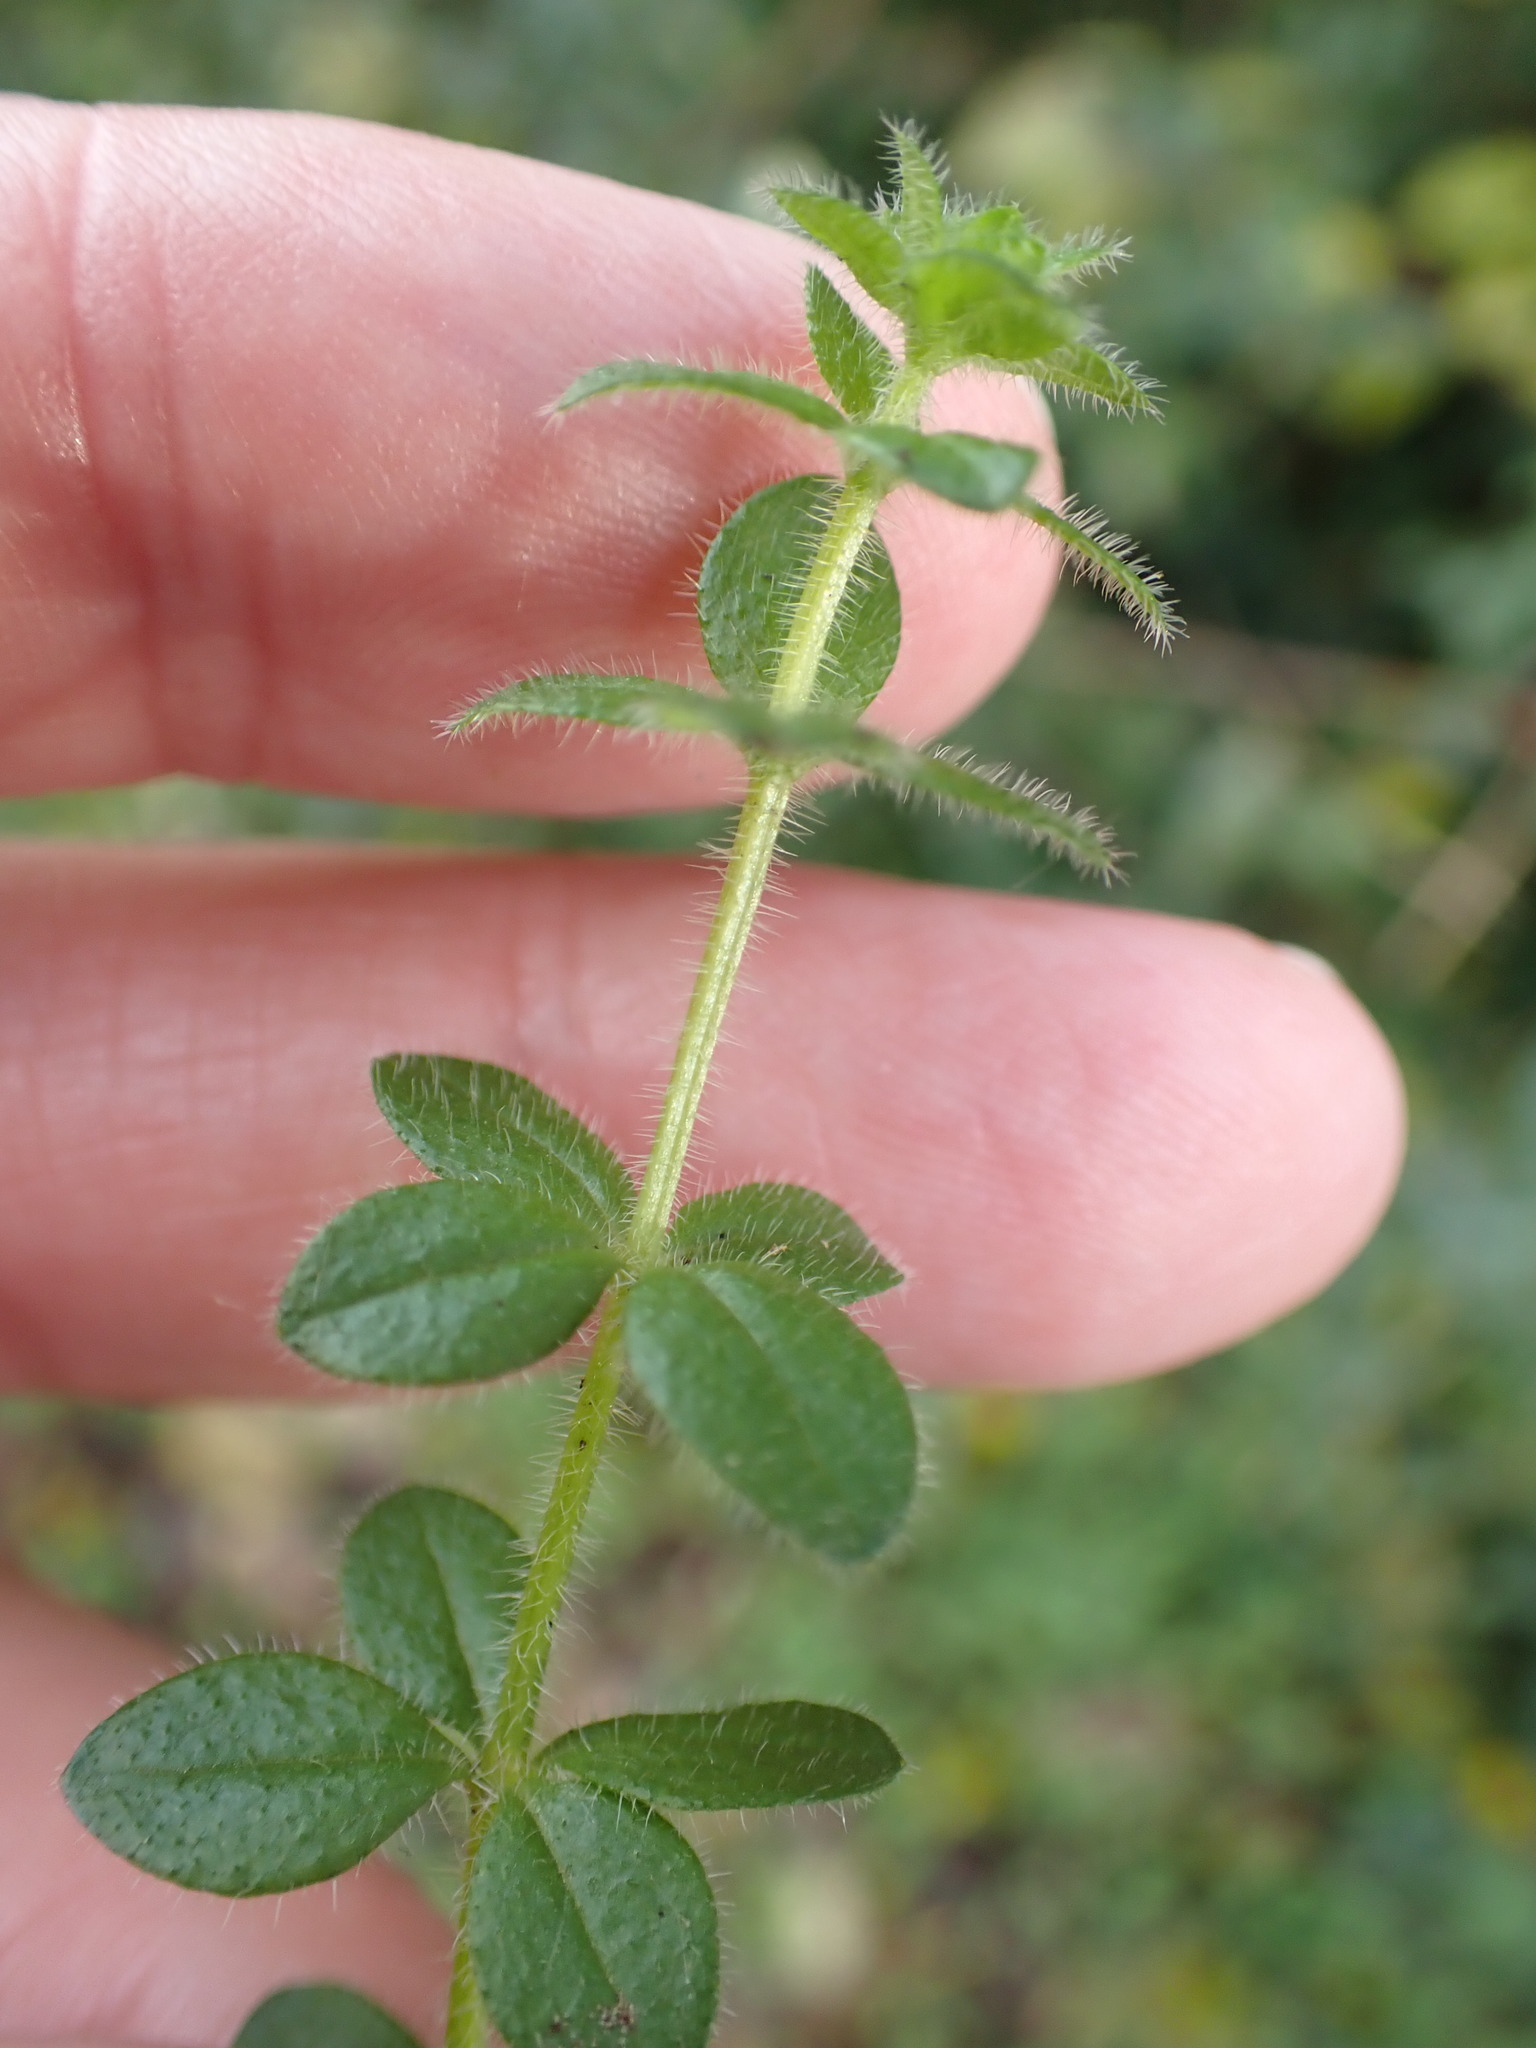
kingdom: Plantae
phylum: Tracheophyta
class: Magnoliopsida
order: Gentianales
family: Rubiaceae
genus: Cruciata
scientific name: Cruciata laevipes
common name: Crosswort
